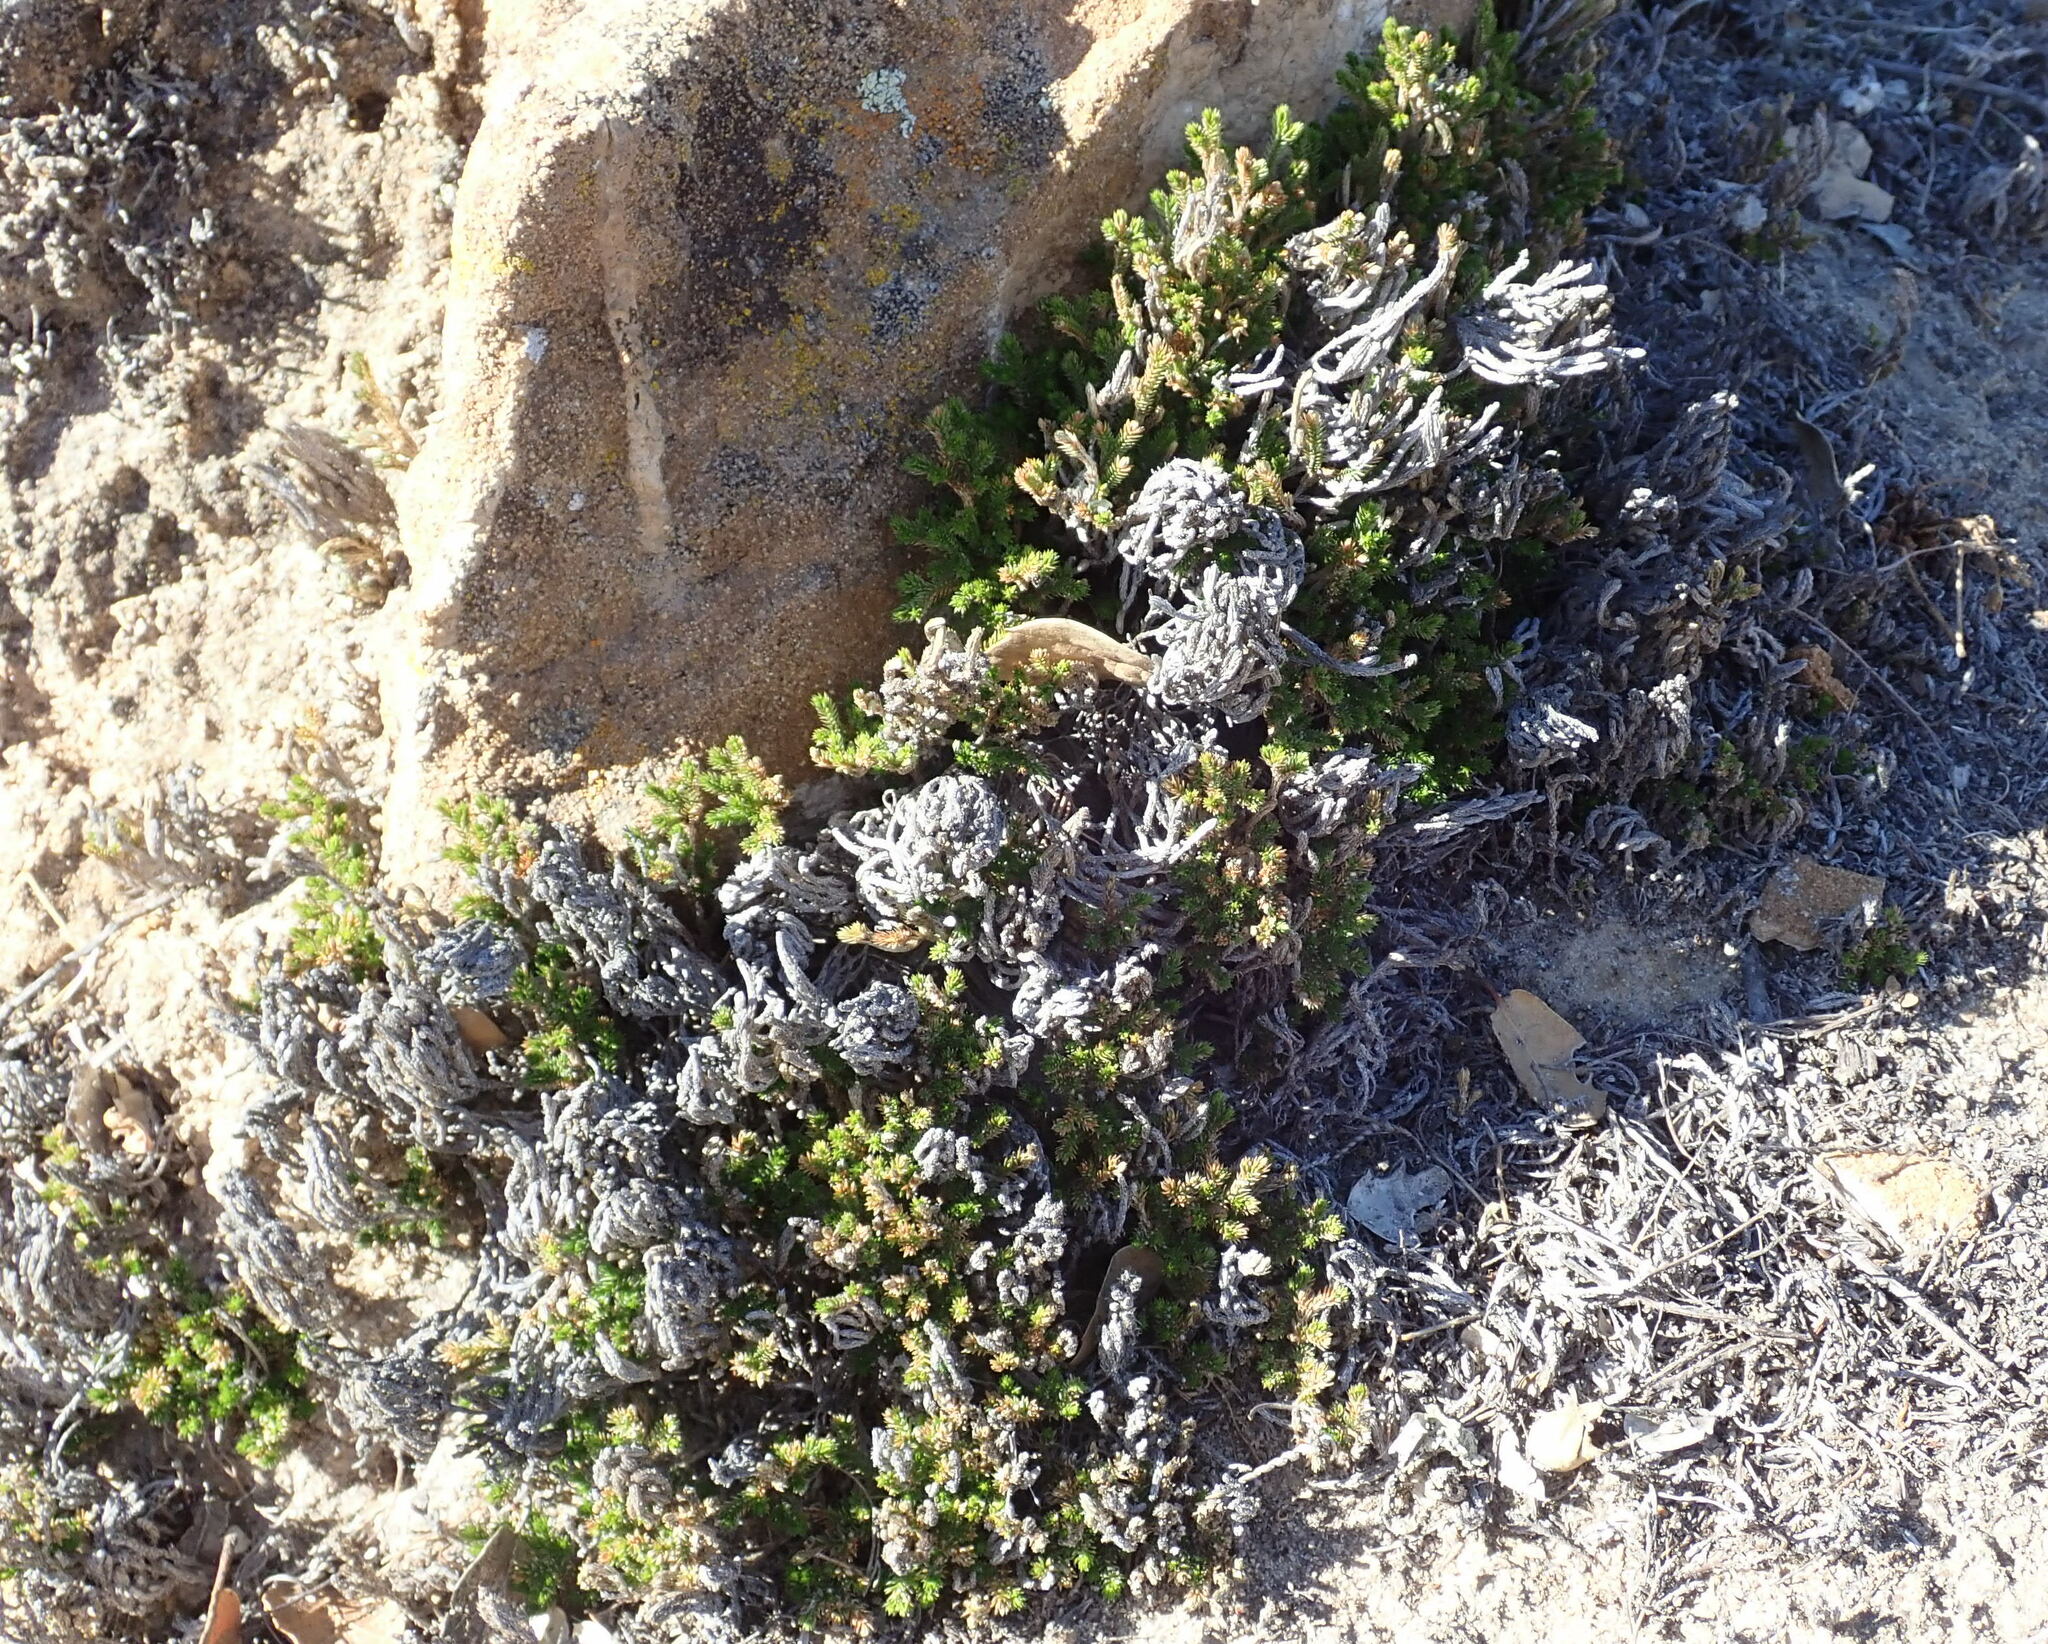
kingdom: Plantae
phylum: Tracheophyta
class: Lycopodiopsida
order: Selaginellales
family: Selaginellaceae
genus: Selaginella
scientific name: Selaginella bigelovii
